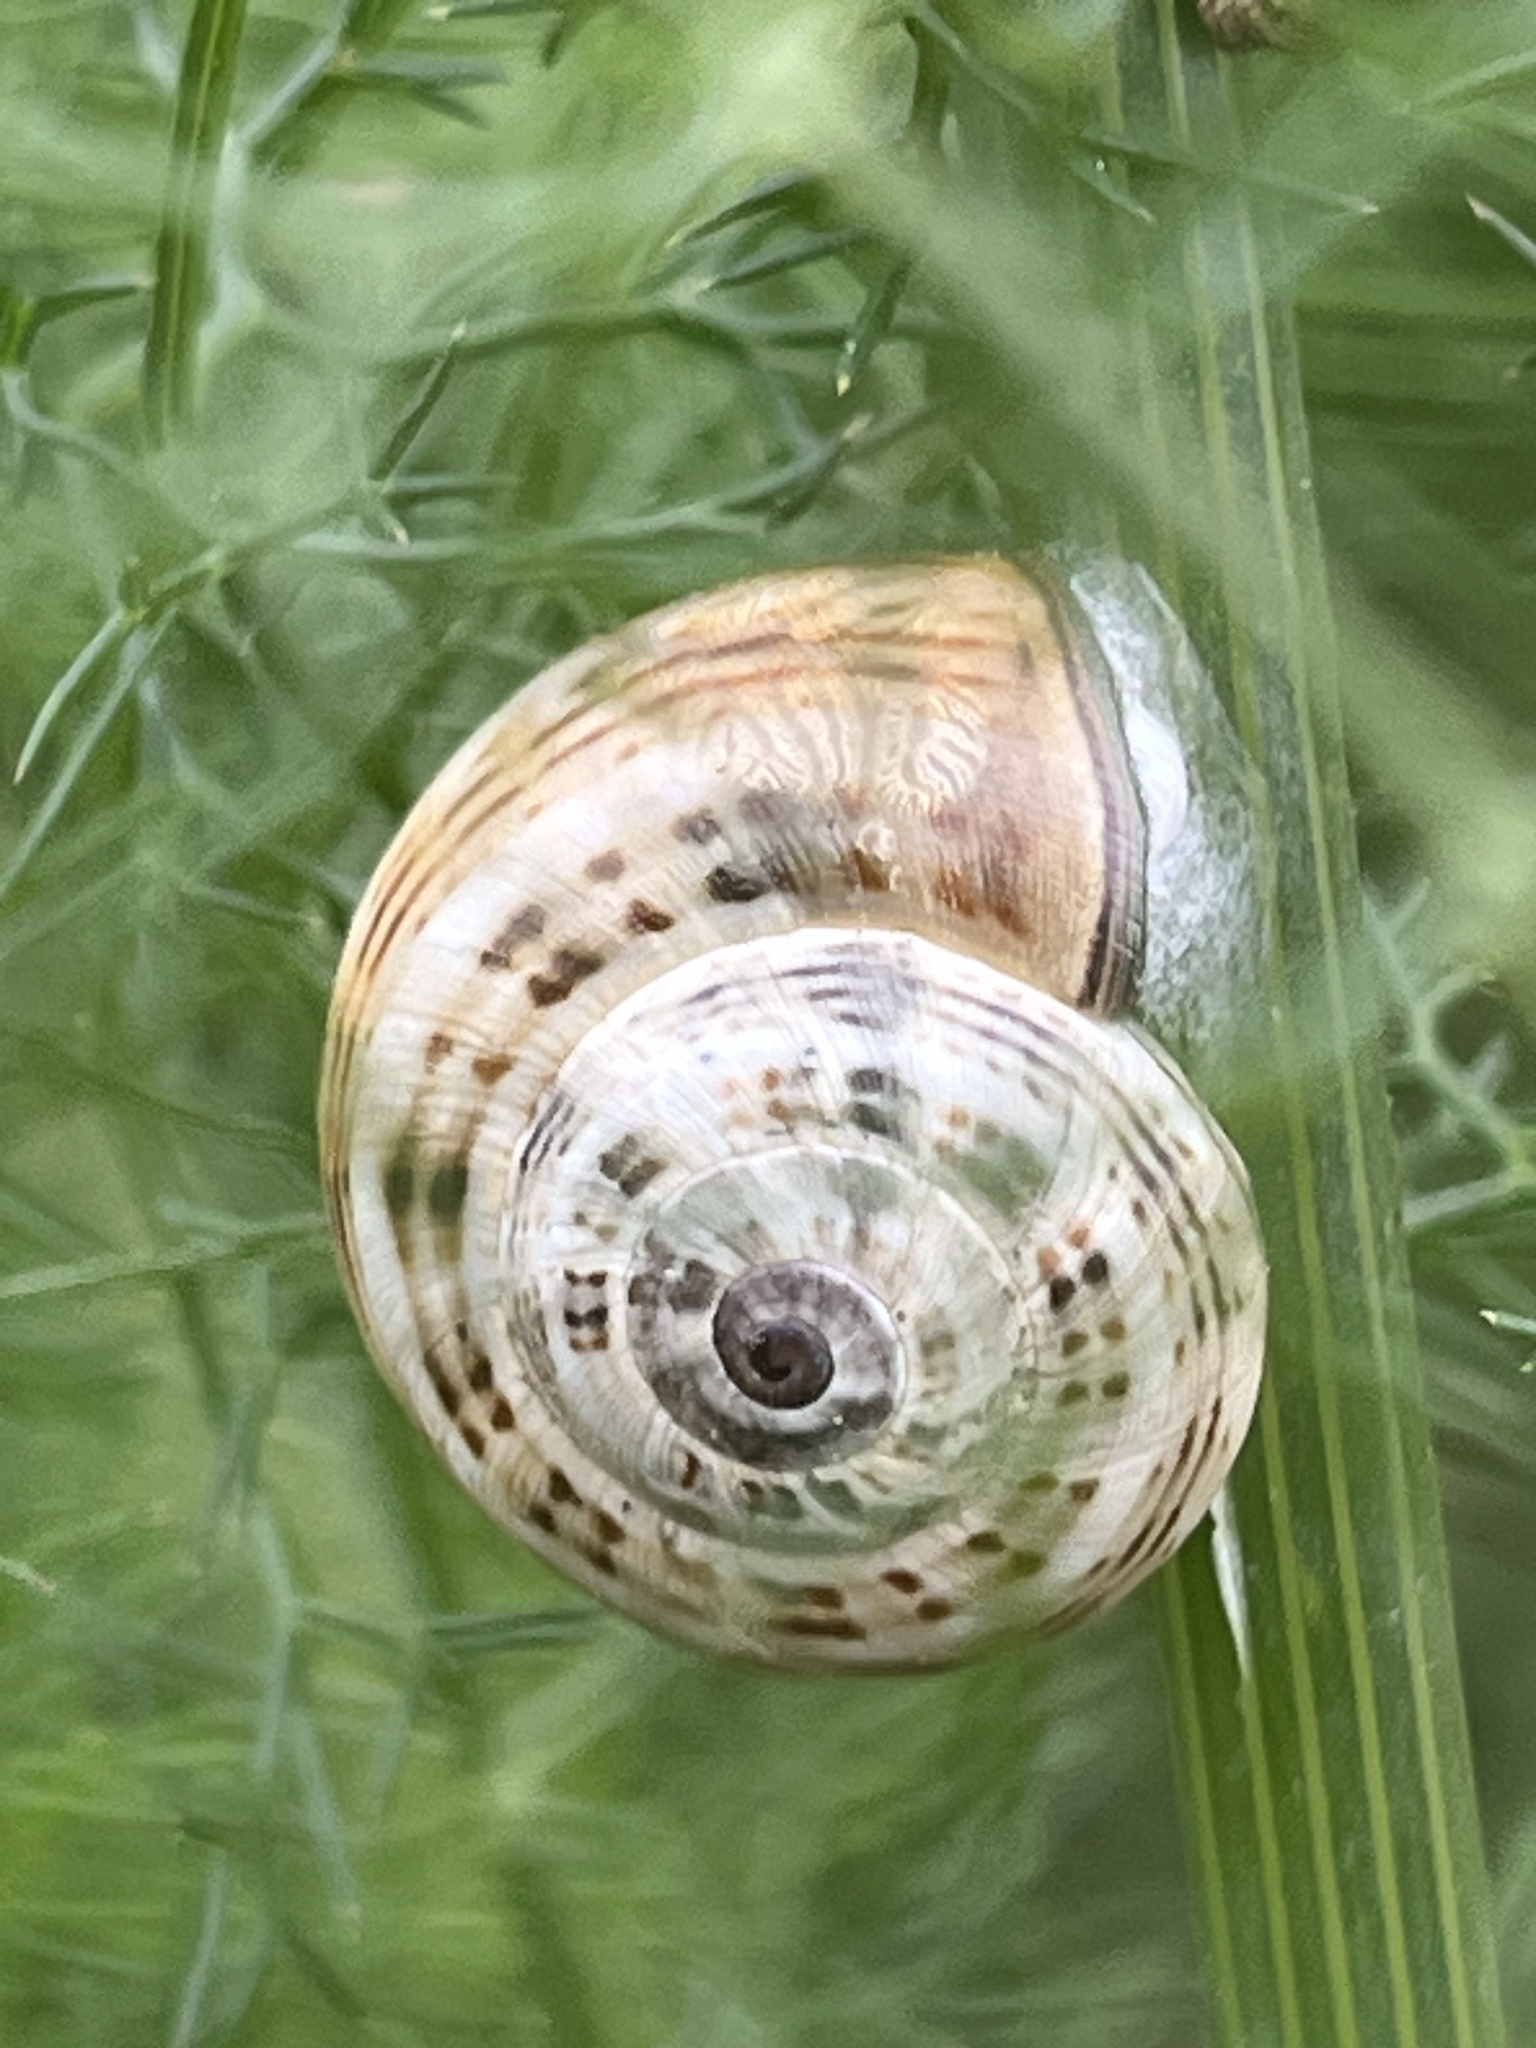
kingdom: Animalia
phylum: Mollusca
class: Gastropoda
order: Stylommatophora
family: Helicidae
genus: Theba
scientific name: Theba pisana
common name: White snail
